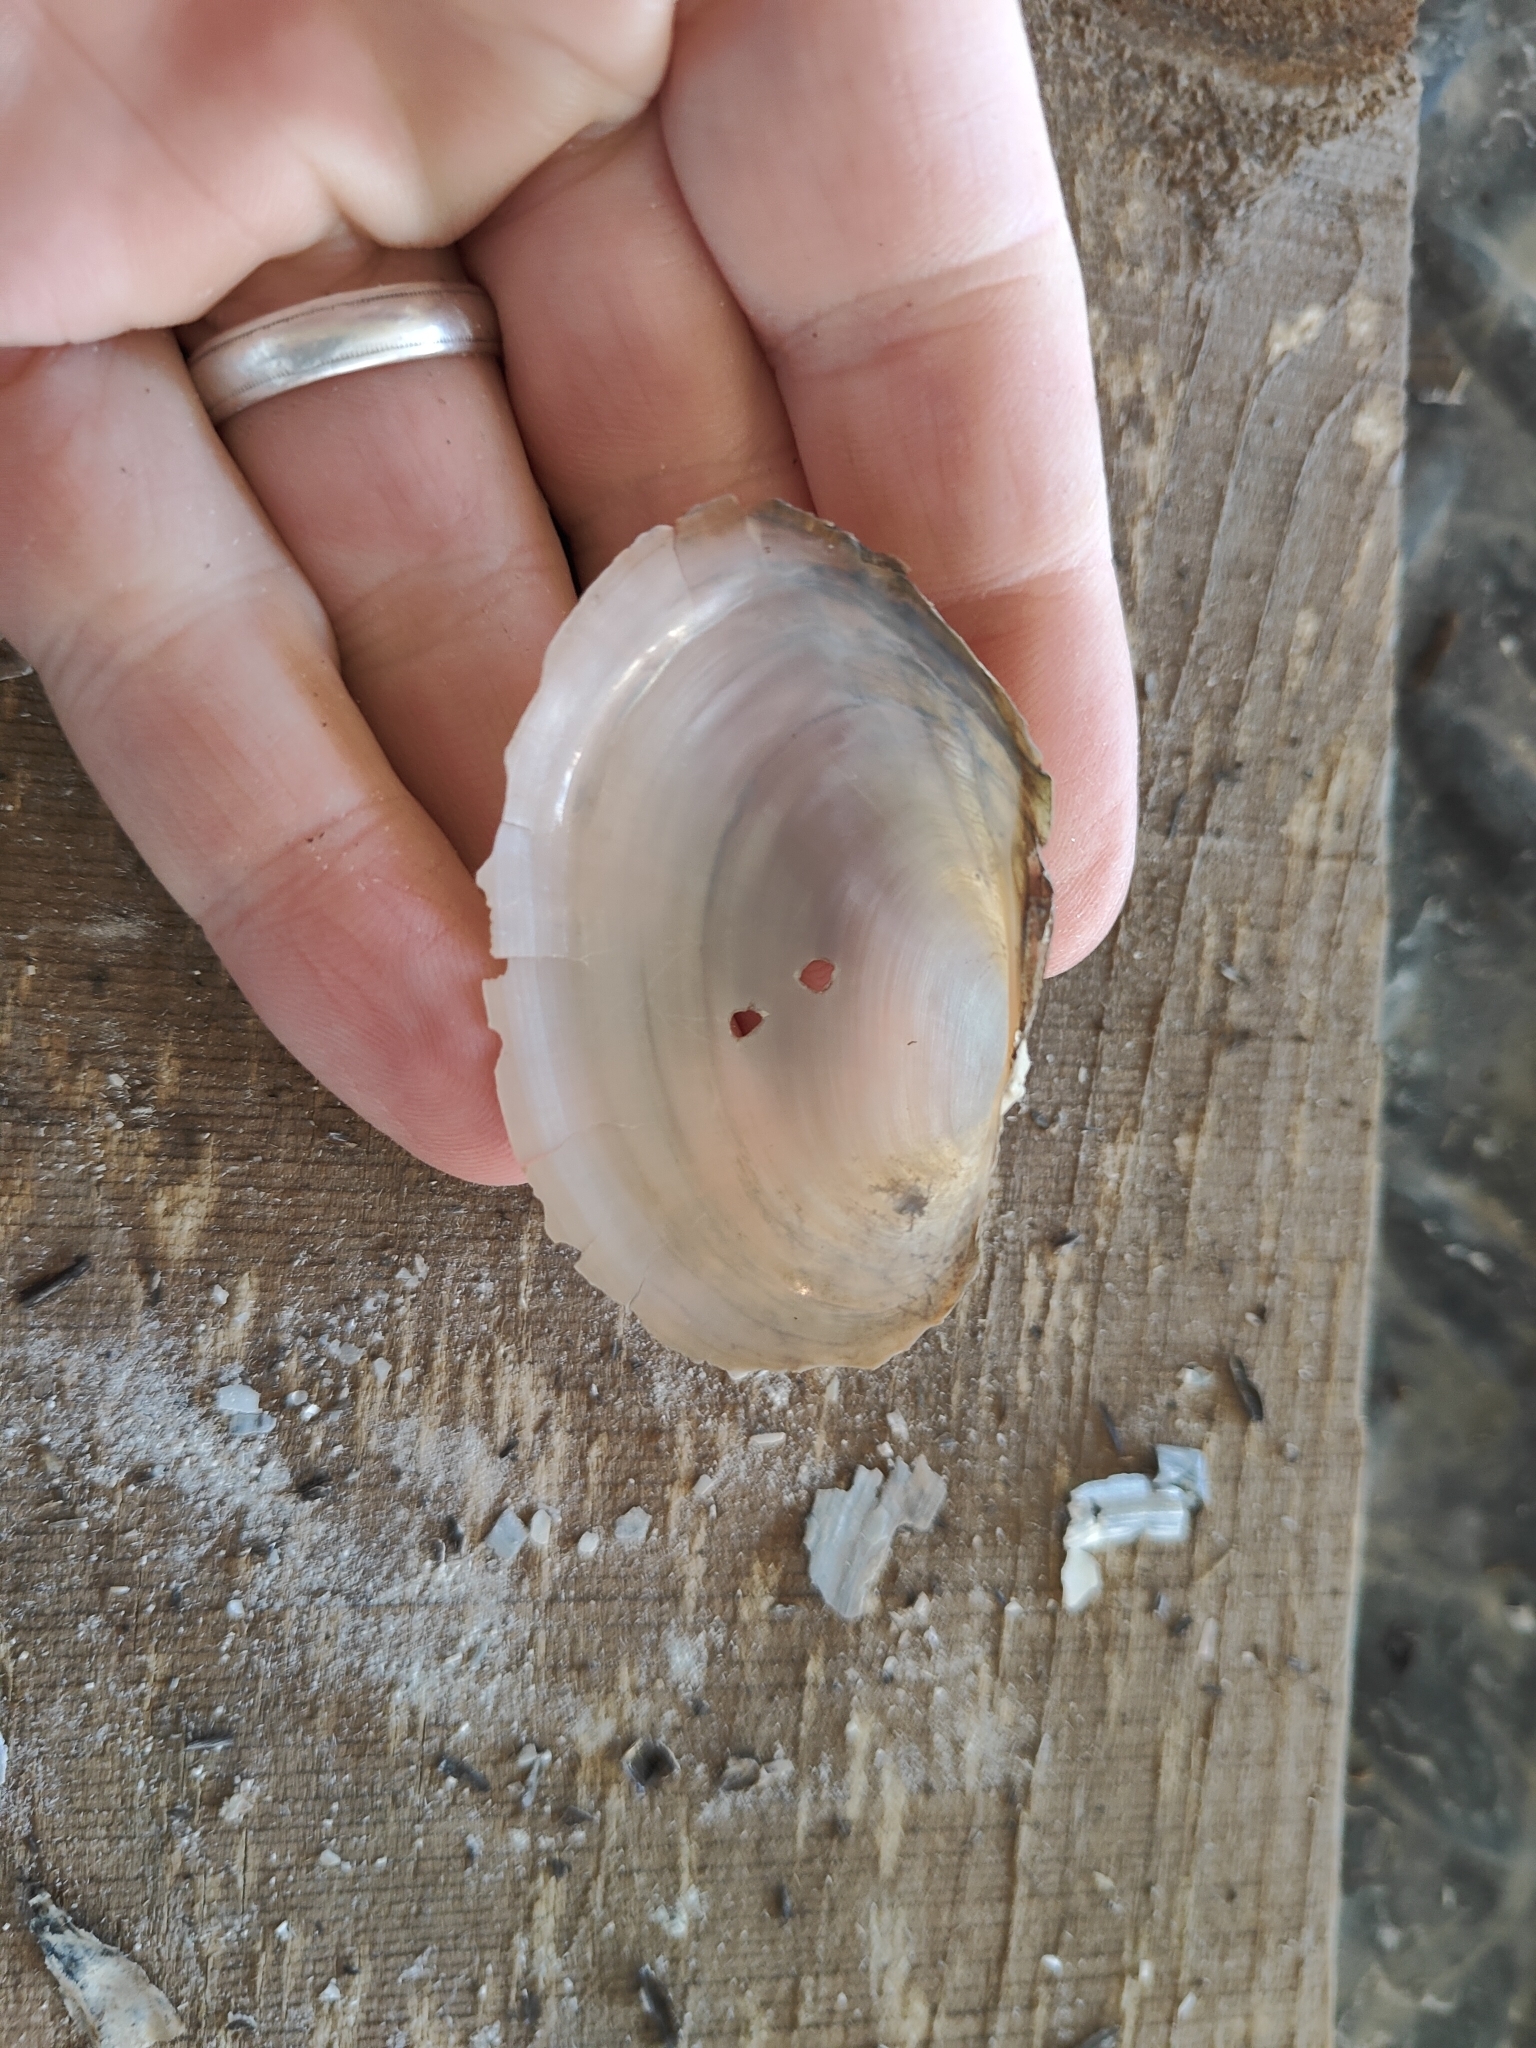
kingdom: Animalia
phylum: Mollusca
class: Bivalvia
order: Unionida
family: Unionidae
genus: Pyganodon
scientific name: Pyganodon grandis
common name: Giant floater
